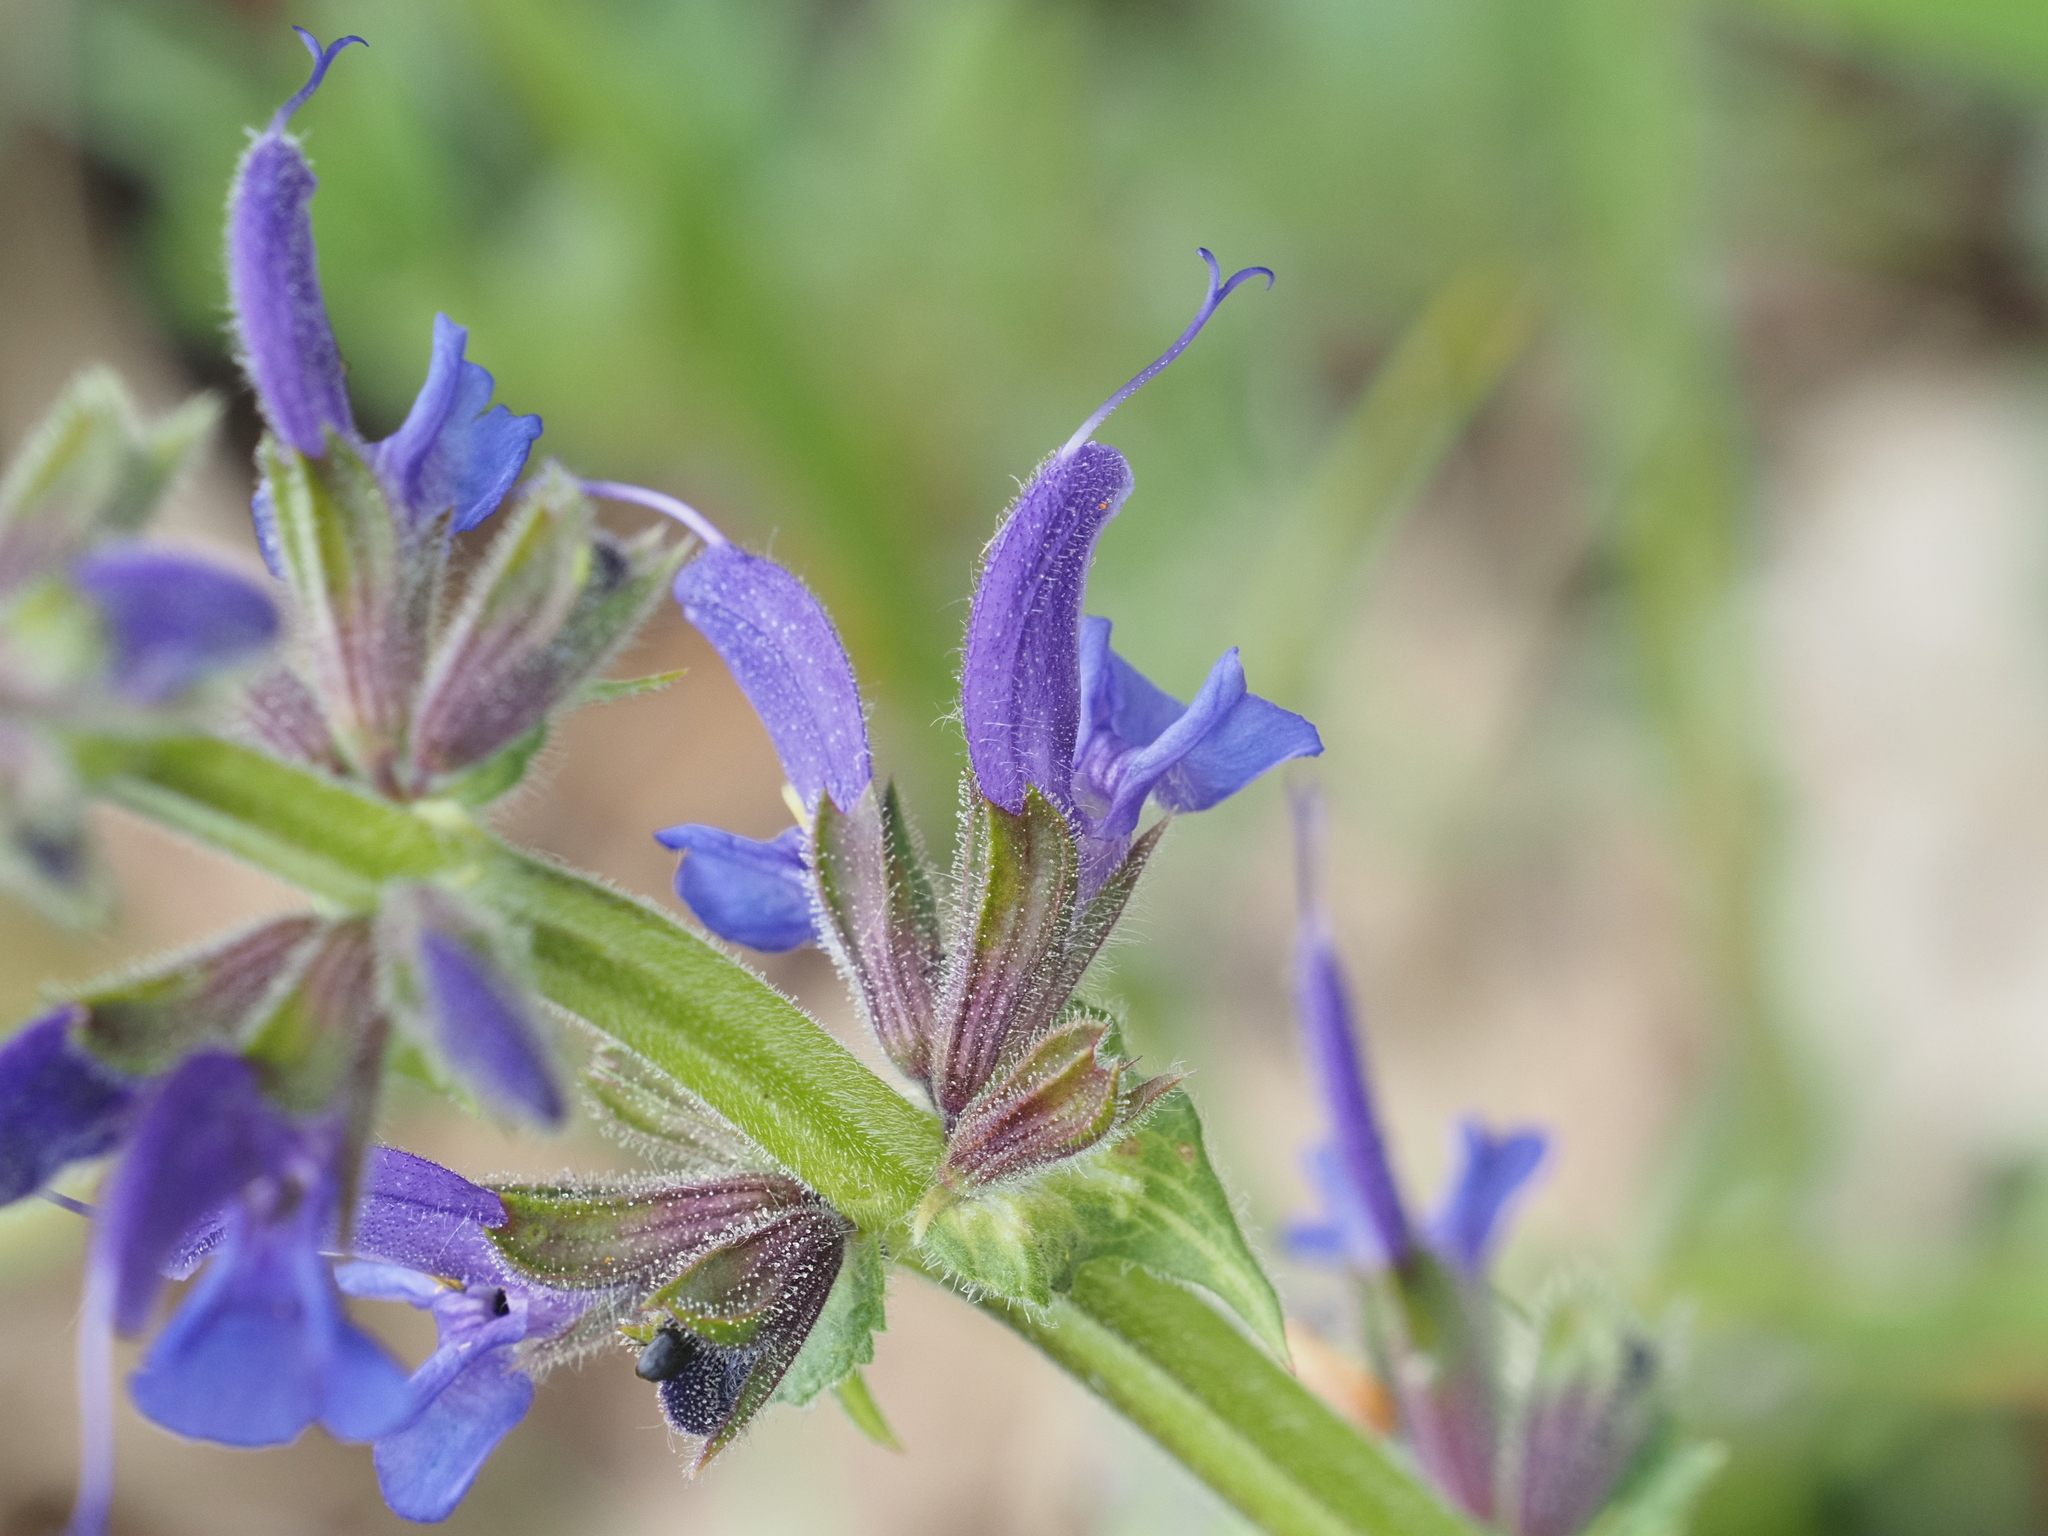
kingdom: Plantae
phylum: Tracheophyta
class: Magnoliopsida
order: Lamiales
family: Lamiaceae
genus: Salvia
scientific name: Salvia pratensis
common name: Meadow sage
